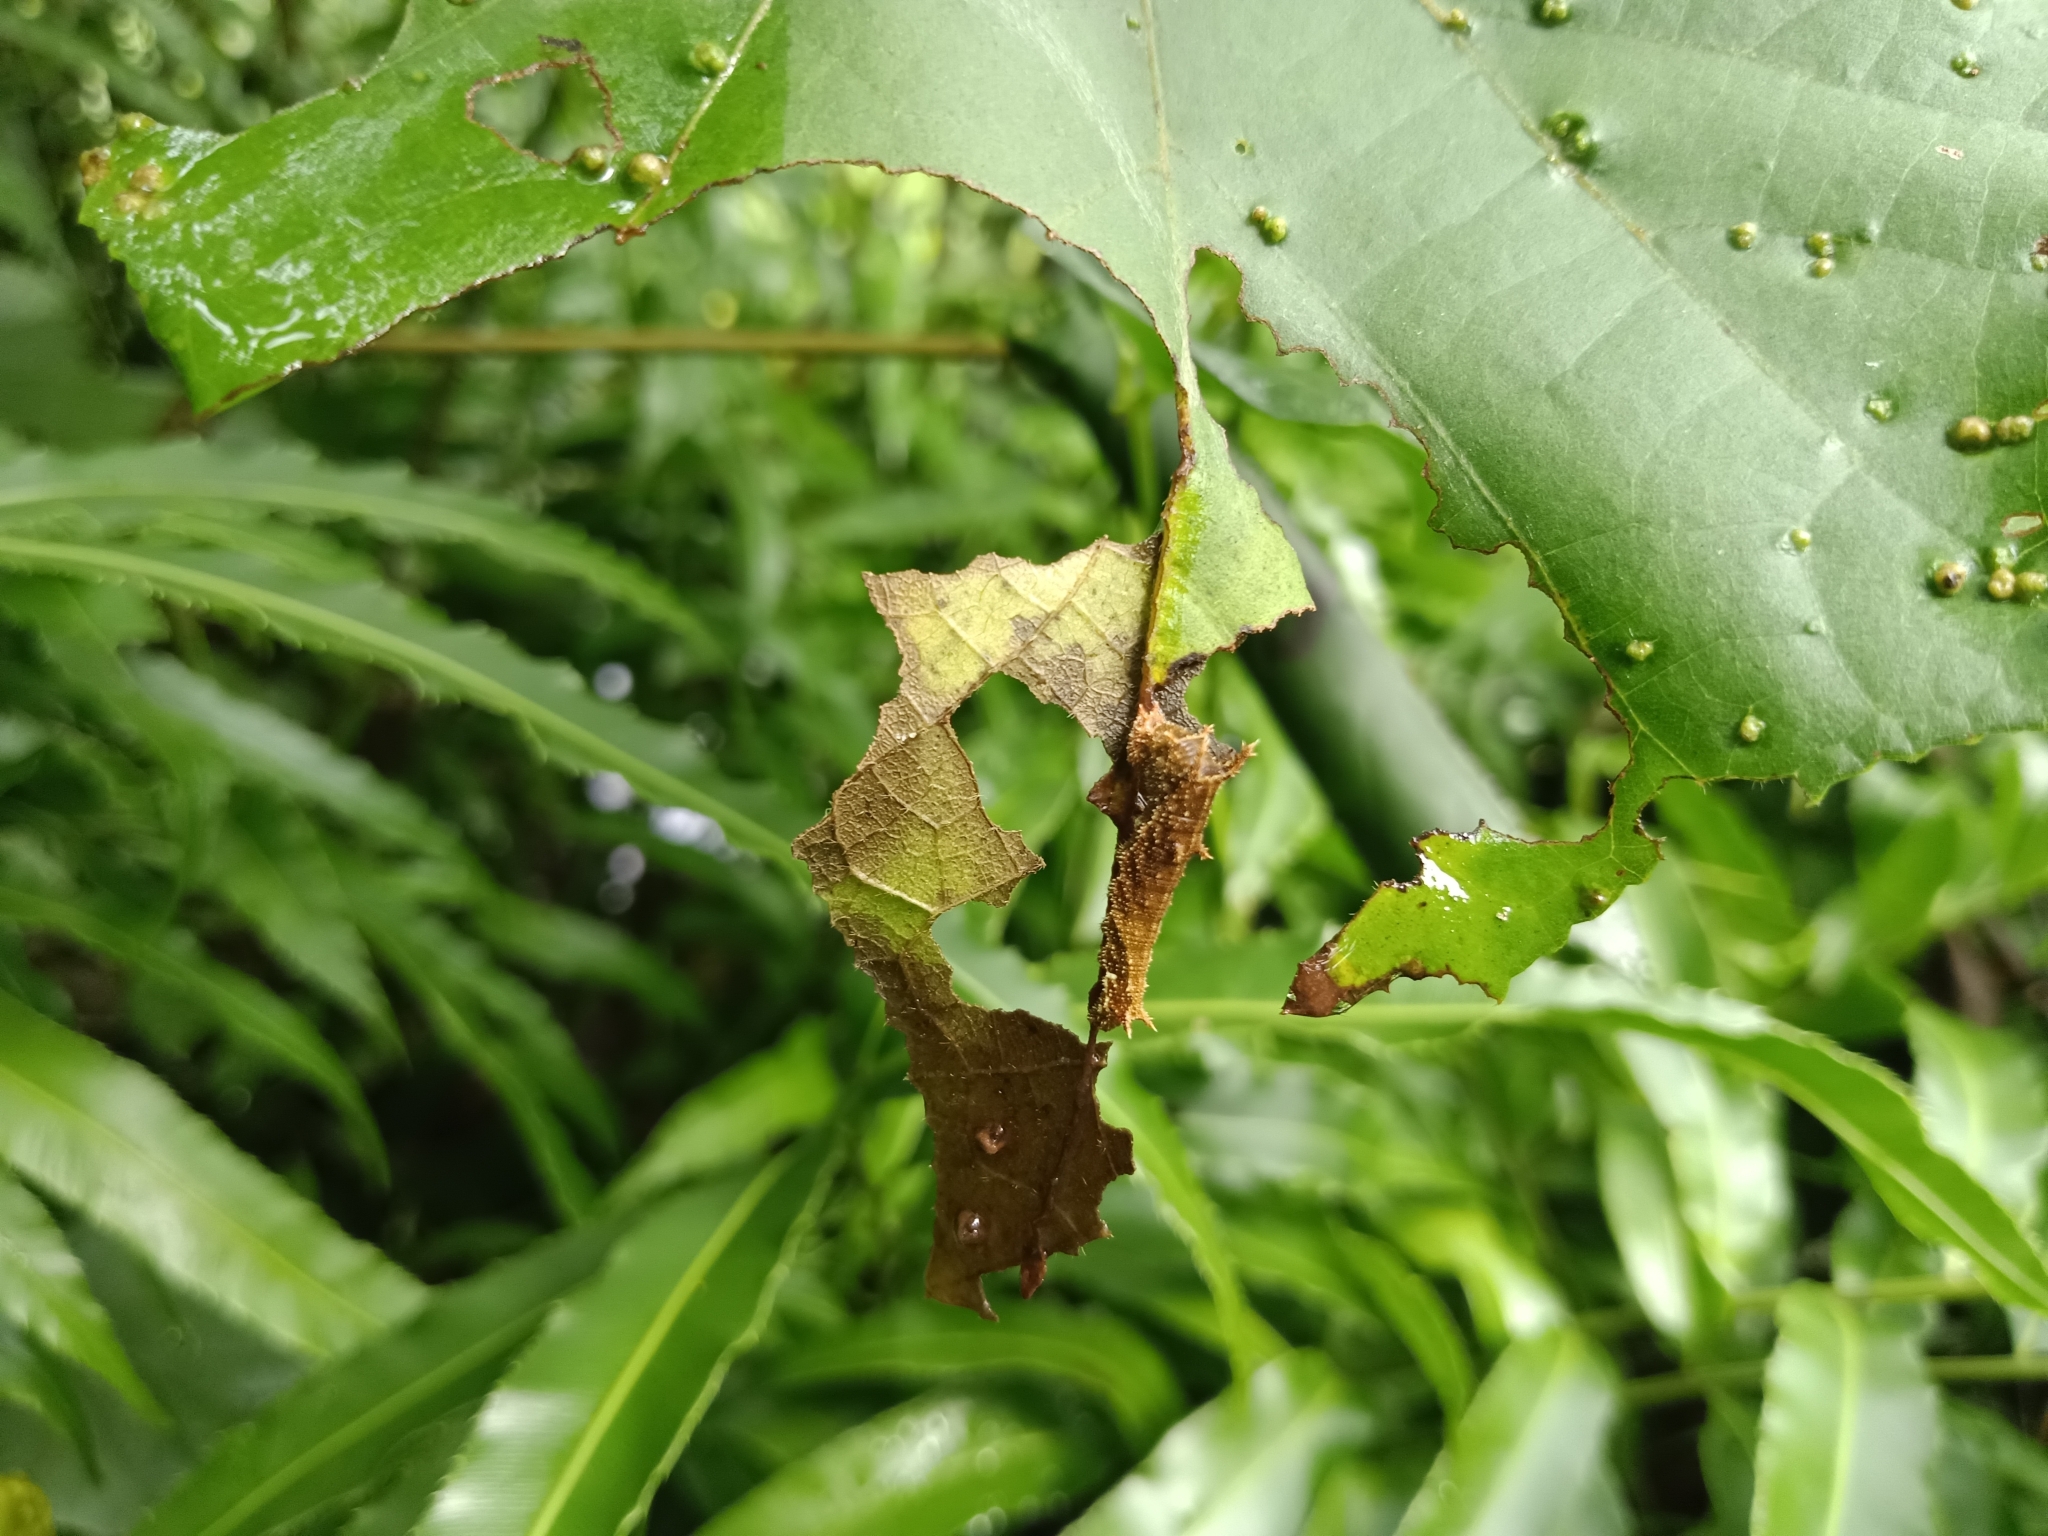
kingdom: Animalia
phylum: Arthropoda
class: Insecta
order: Lepidoptera
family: Nymphalidae
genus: Neptis
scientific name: Neptis jumbah
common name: Chestnut-streaked sailer
